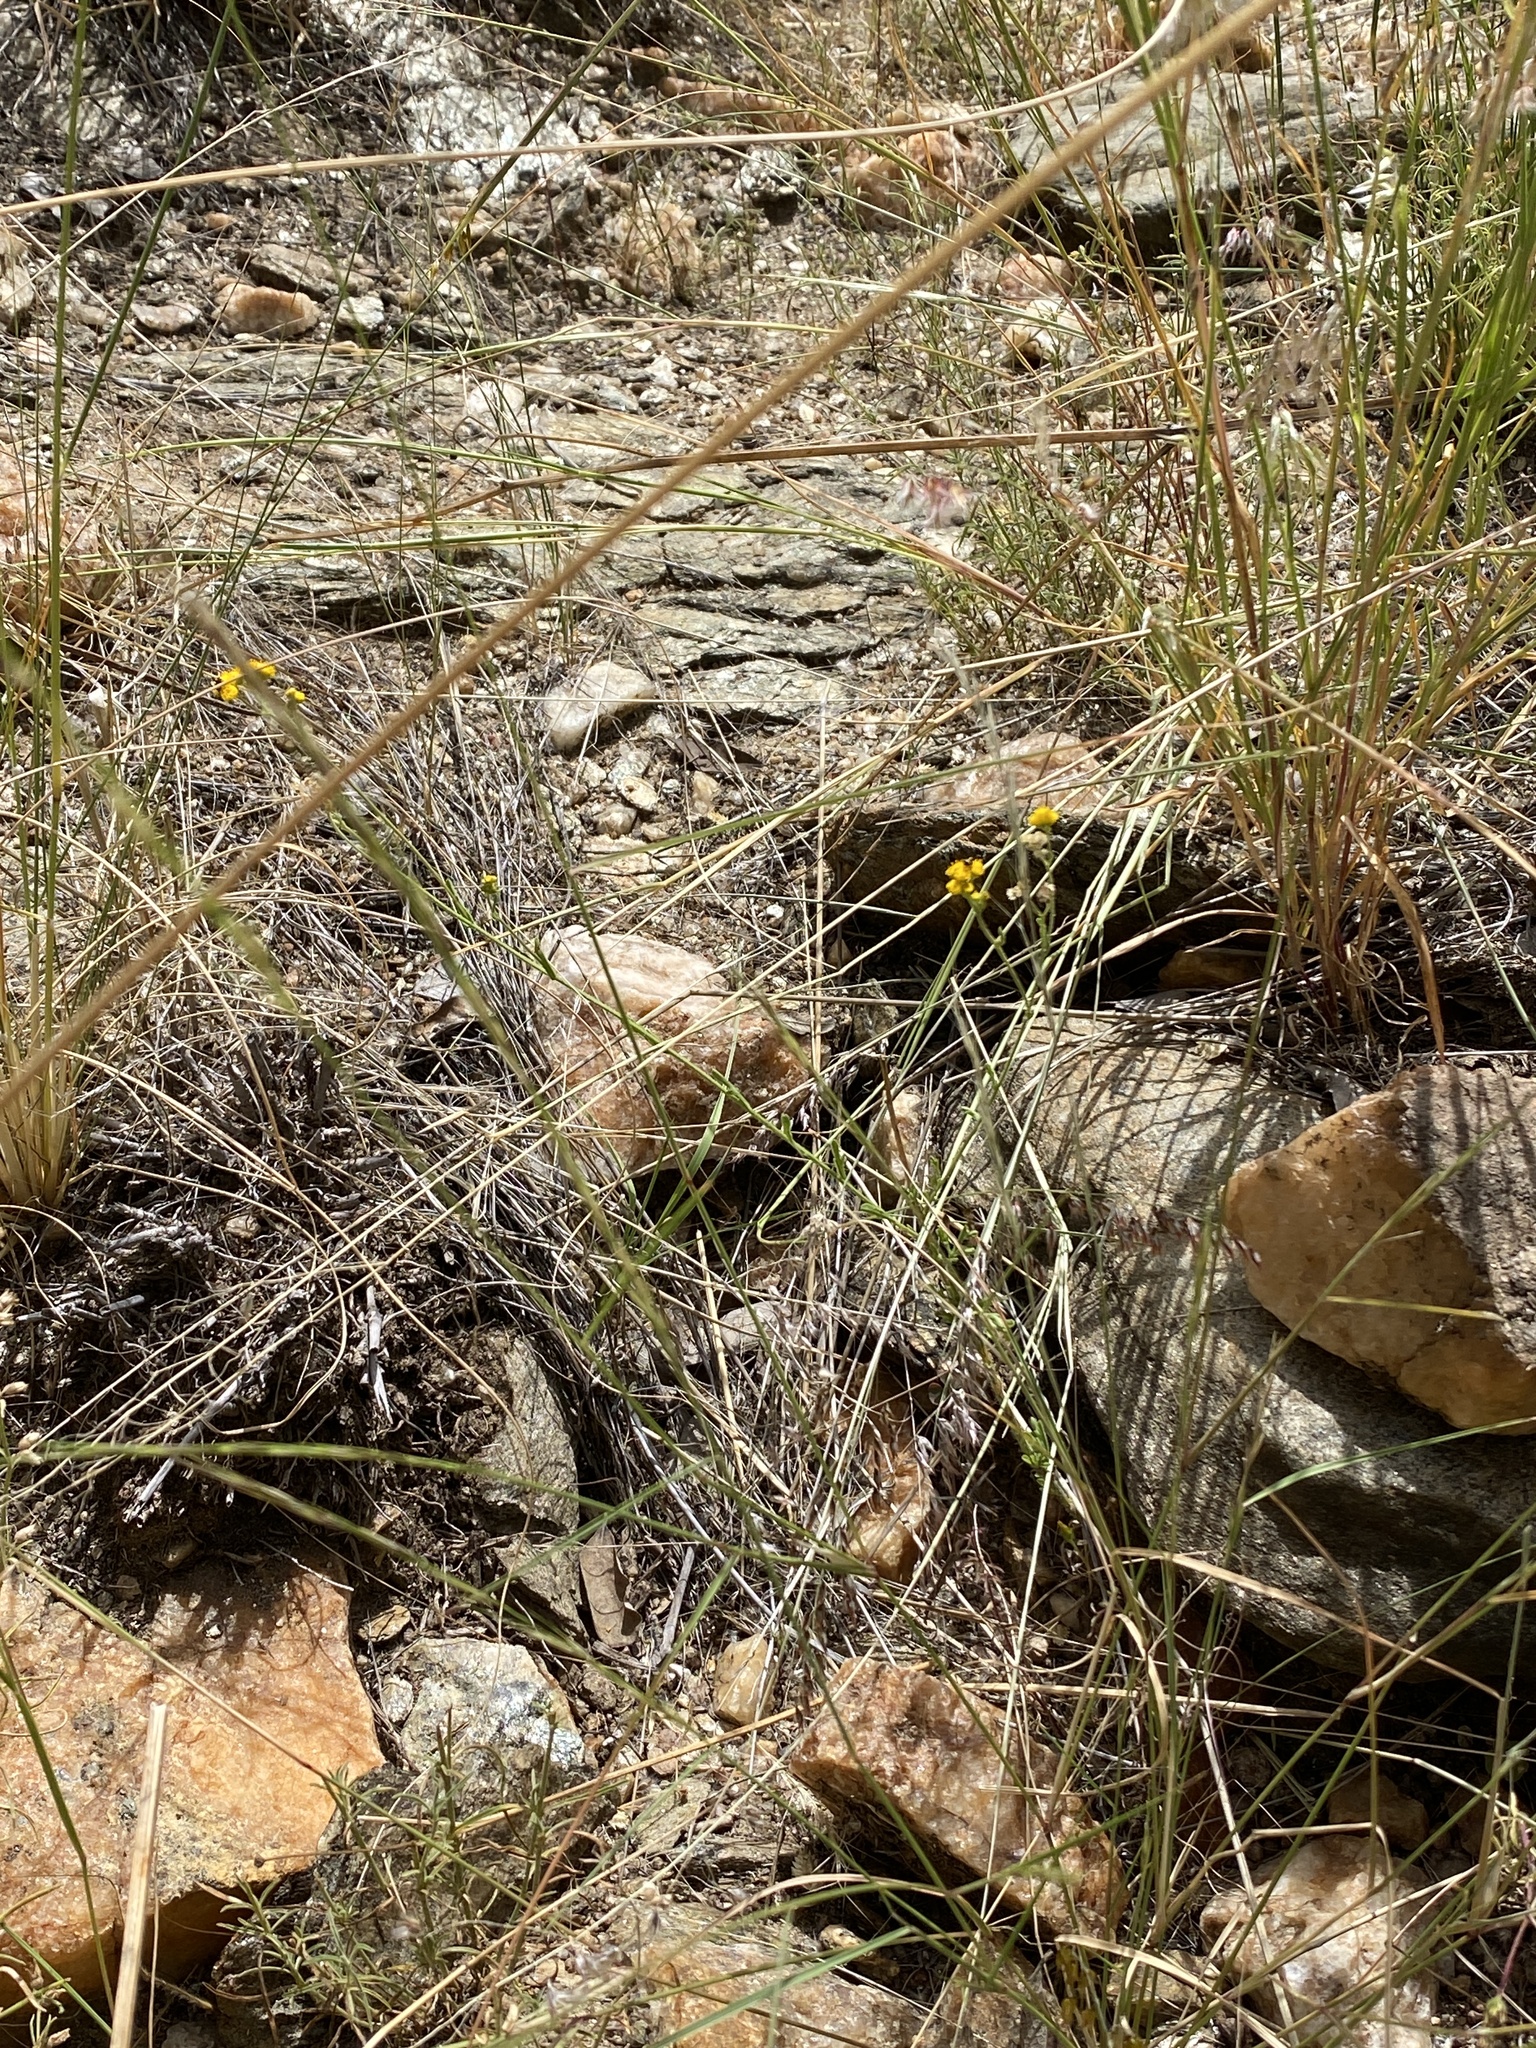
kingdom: Plantae
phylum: Tracheophyta
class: Magnoliopsida
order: Asterales
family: Asteraceae
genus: Nidorella
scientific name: Nidorella resedifolia
